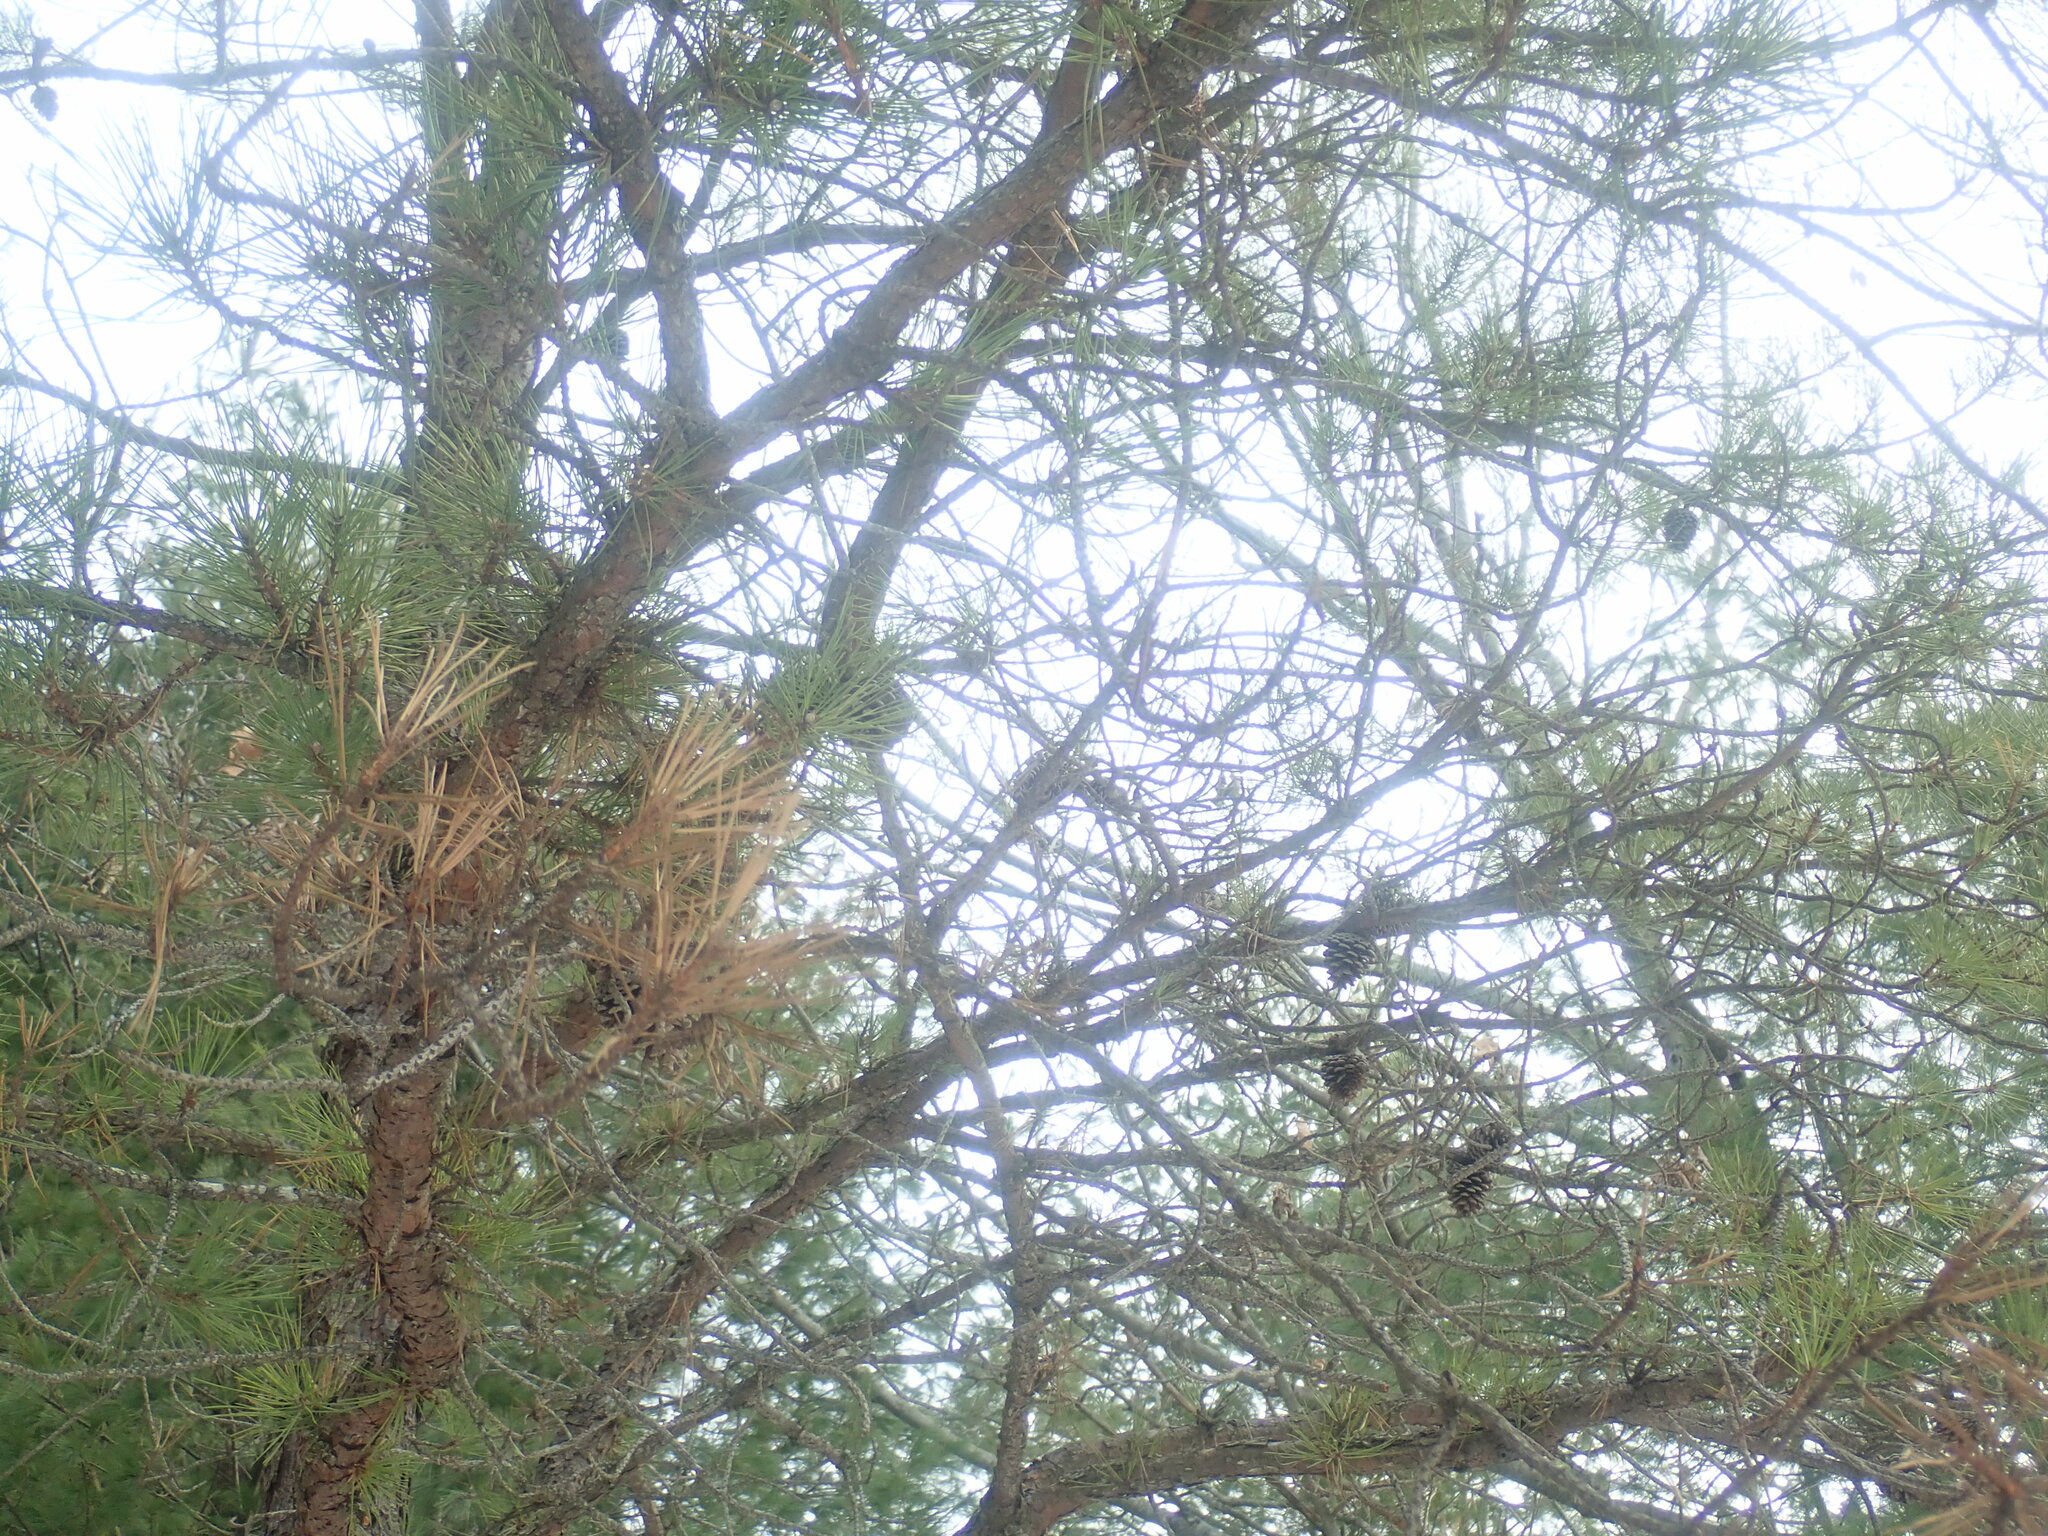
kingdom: Plantae
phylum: Tracheophyta
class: Pinopsida
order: Pinales
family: Pinaceae
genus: Pinus
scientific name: Pinus rigida
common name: Pitch pine
